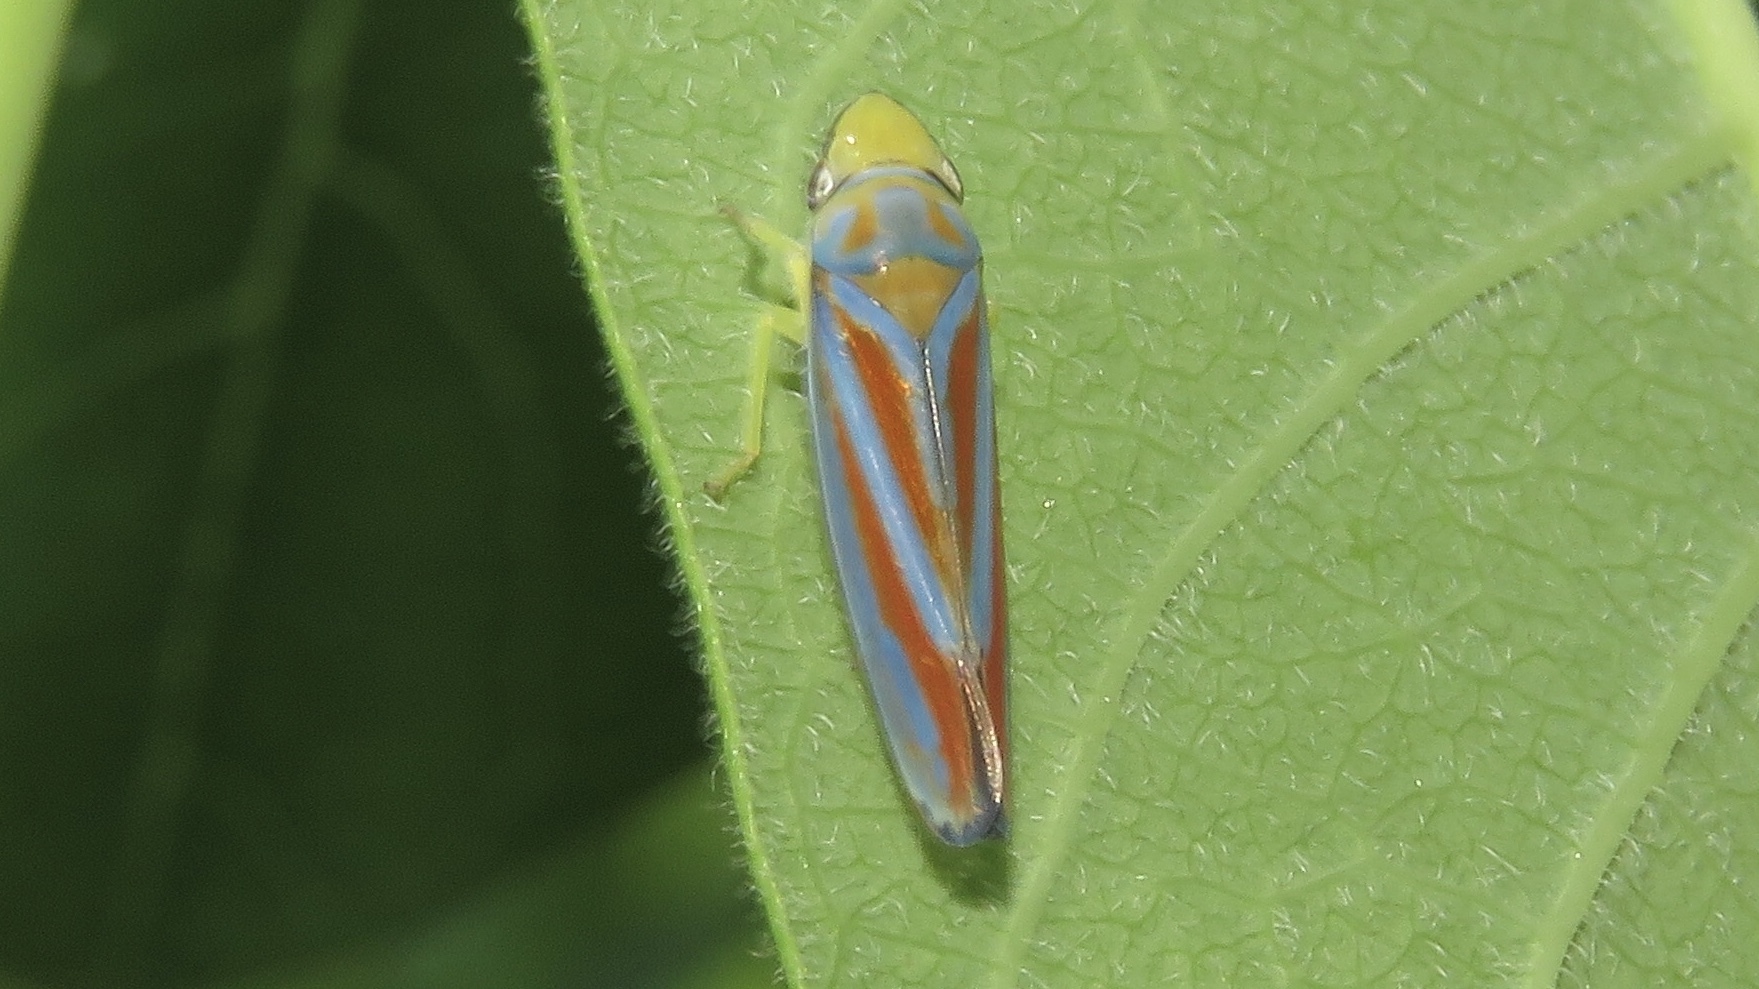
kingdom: Animalia
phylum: Arthropoda
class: Insecta
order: Hemiptera
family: Cicadellidae
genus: Graphocephala
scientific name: Graphocephala fennahi
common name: Rhododendron leafhopper
